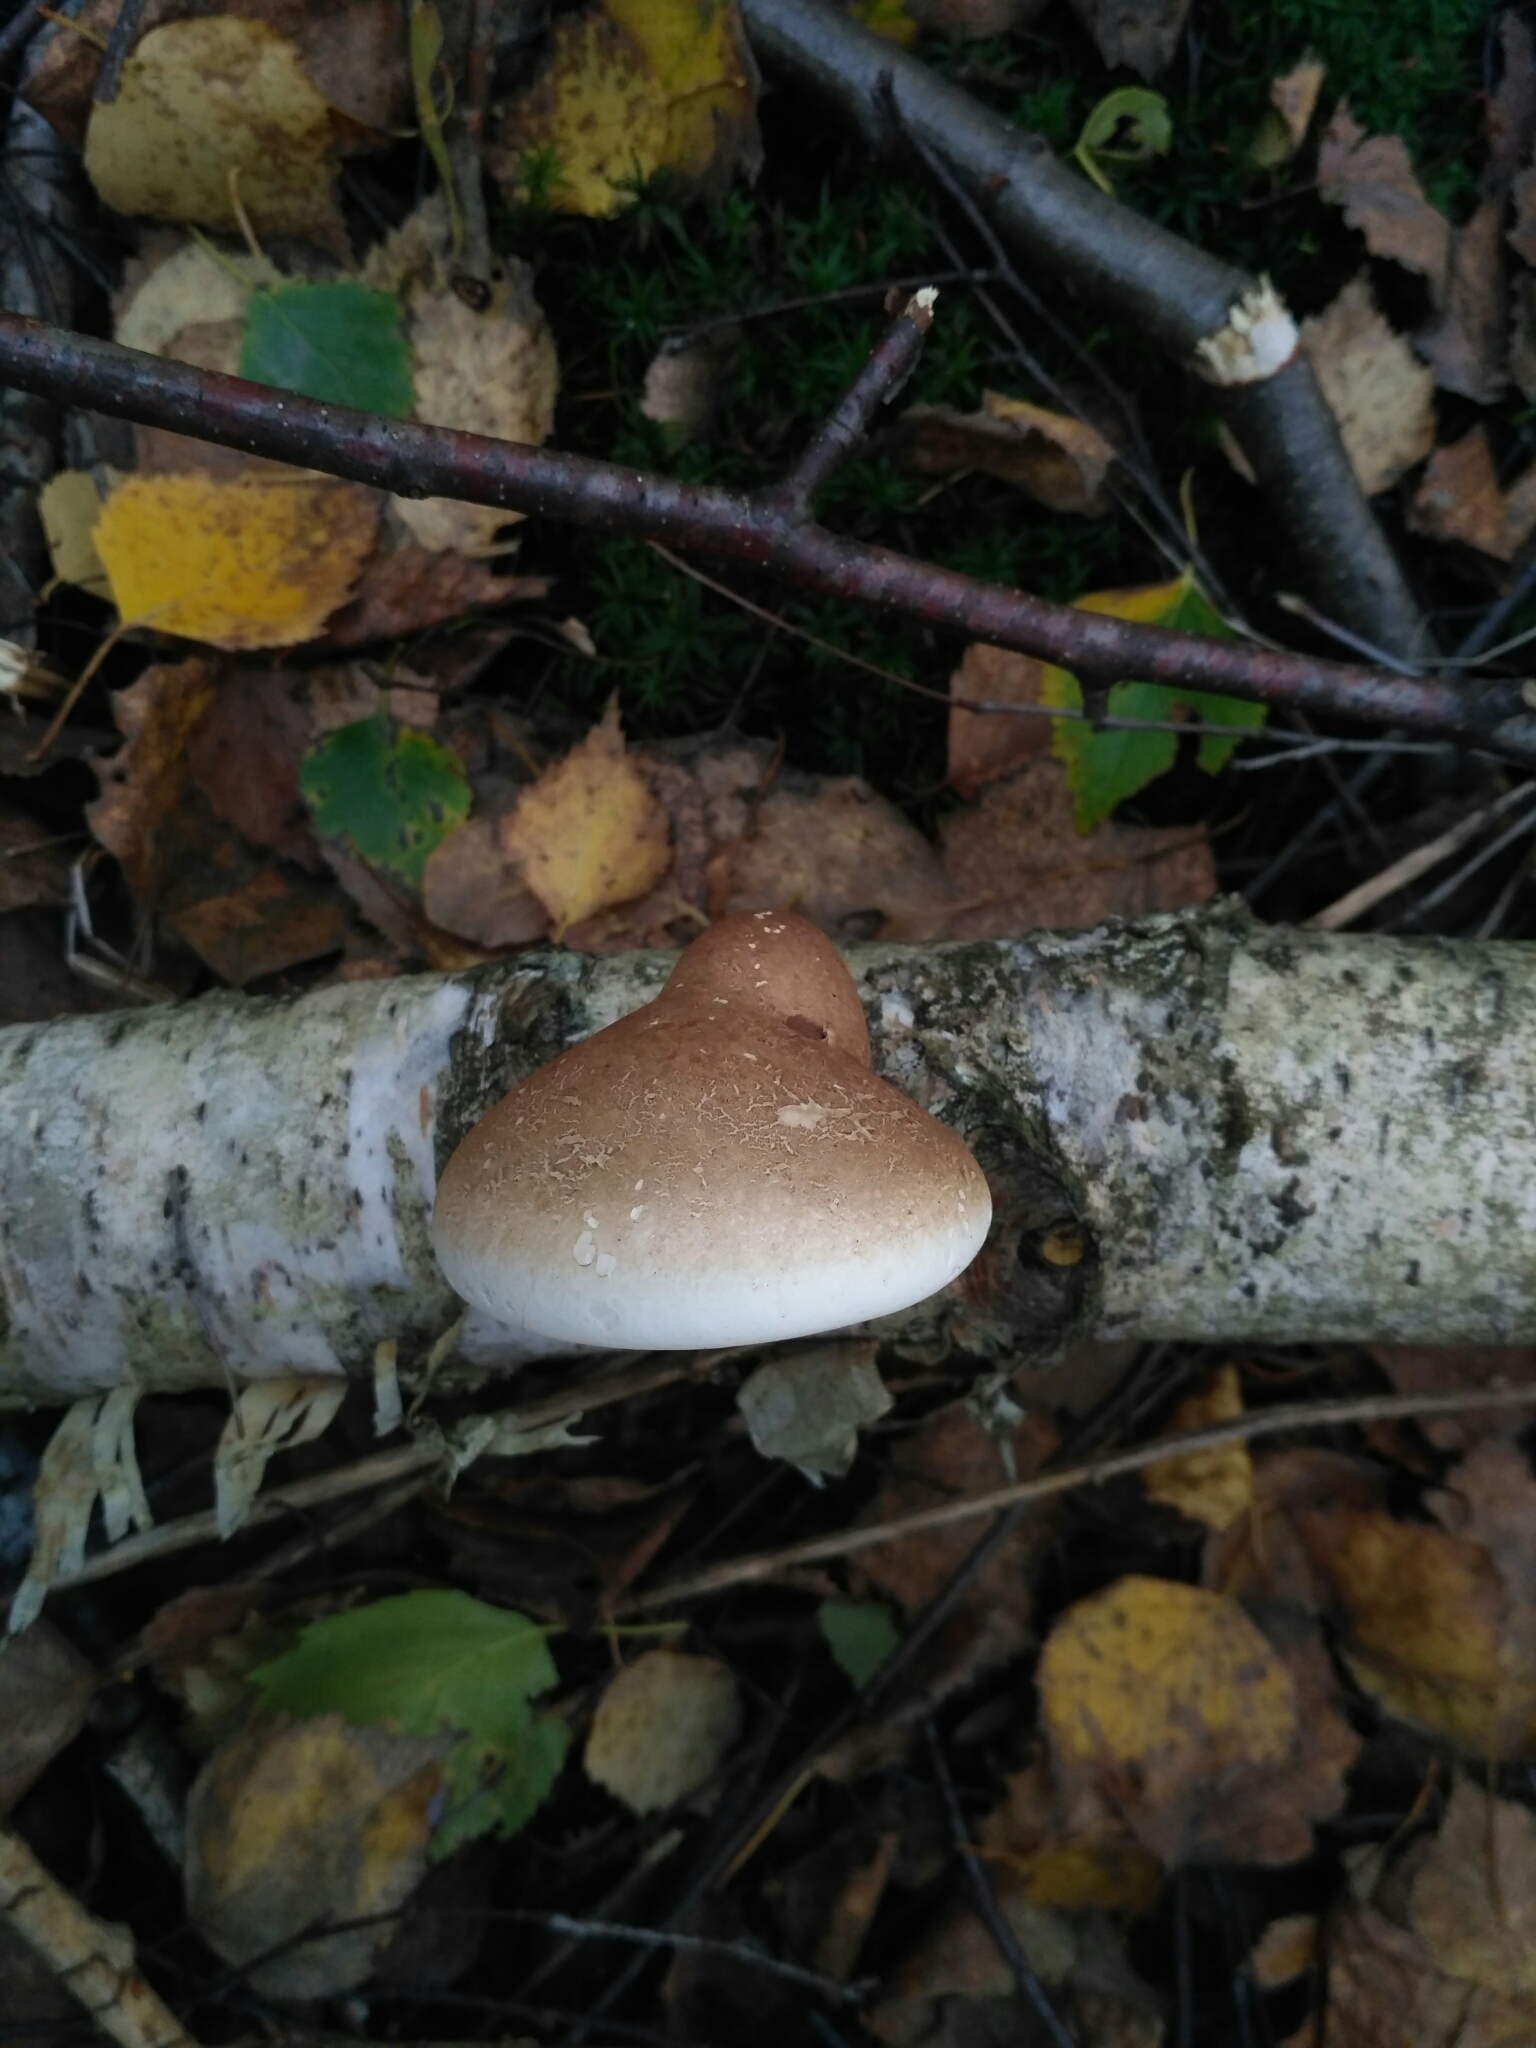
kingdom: Fungi
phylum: Basidiomycota
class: Agaricomycetes
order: Polyporales
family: Fomitopsidaceae
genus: Fomitopsis
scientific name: Fomitopsis betulina
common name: Birch polypore
